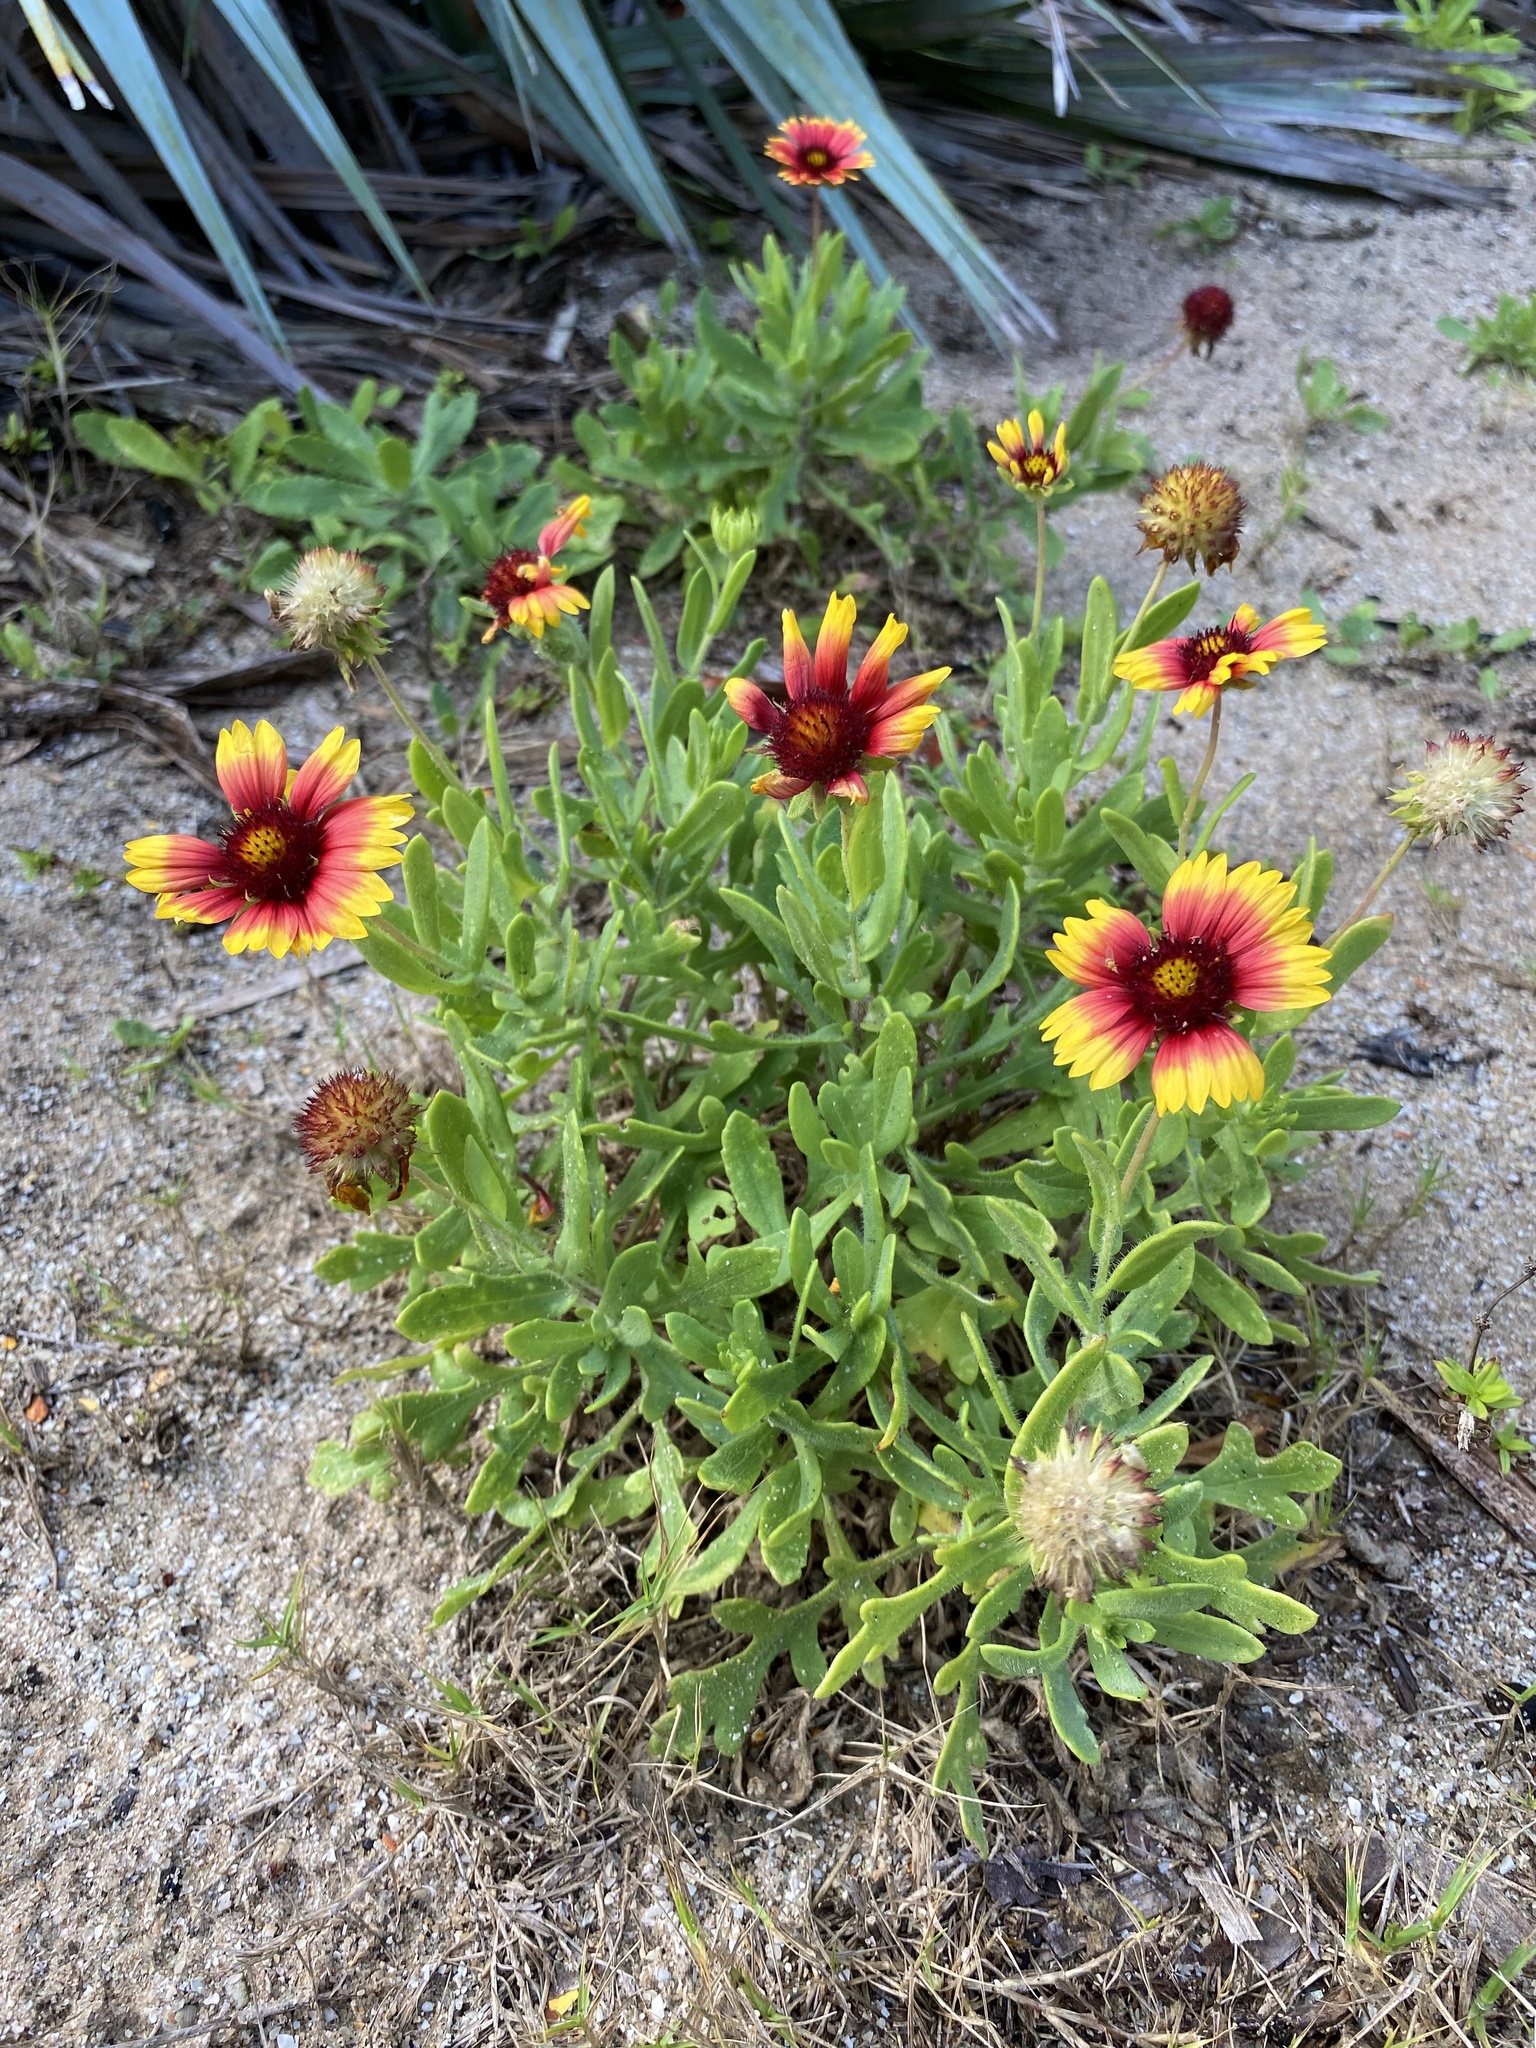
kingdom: Plantae
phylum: Tracheophyta
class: Magnoliopsida
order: Asterales
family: Asteraceae
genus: Gaillardia
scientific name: Gaillardia pulchella
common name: Firewheel
